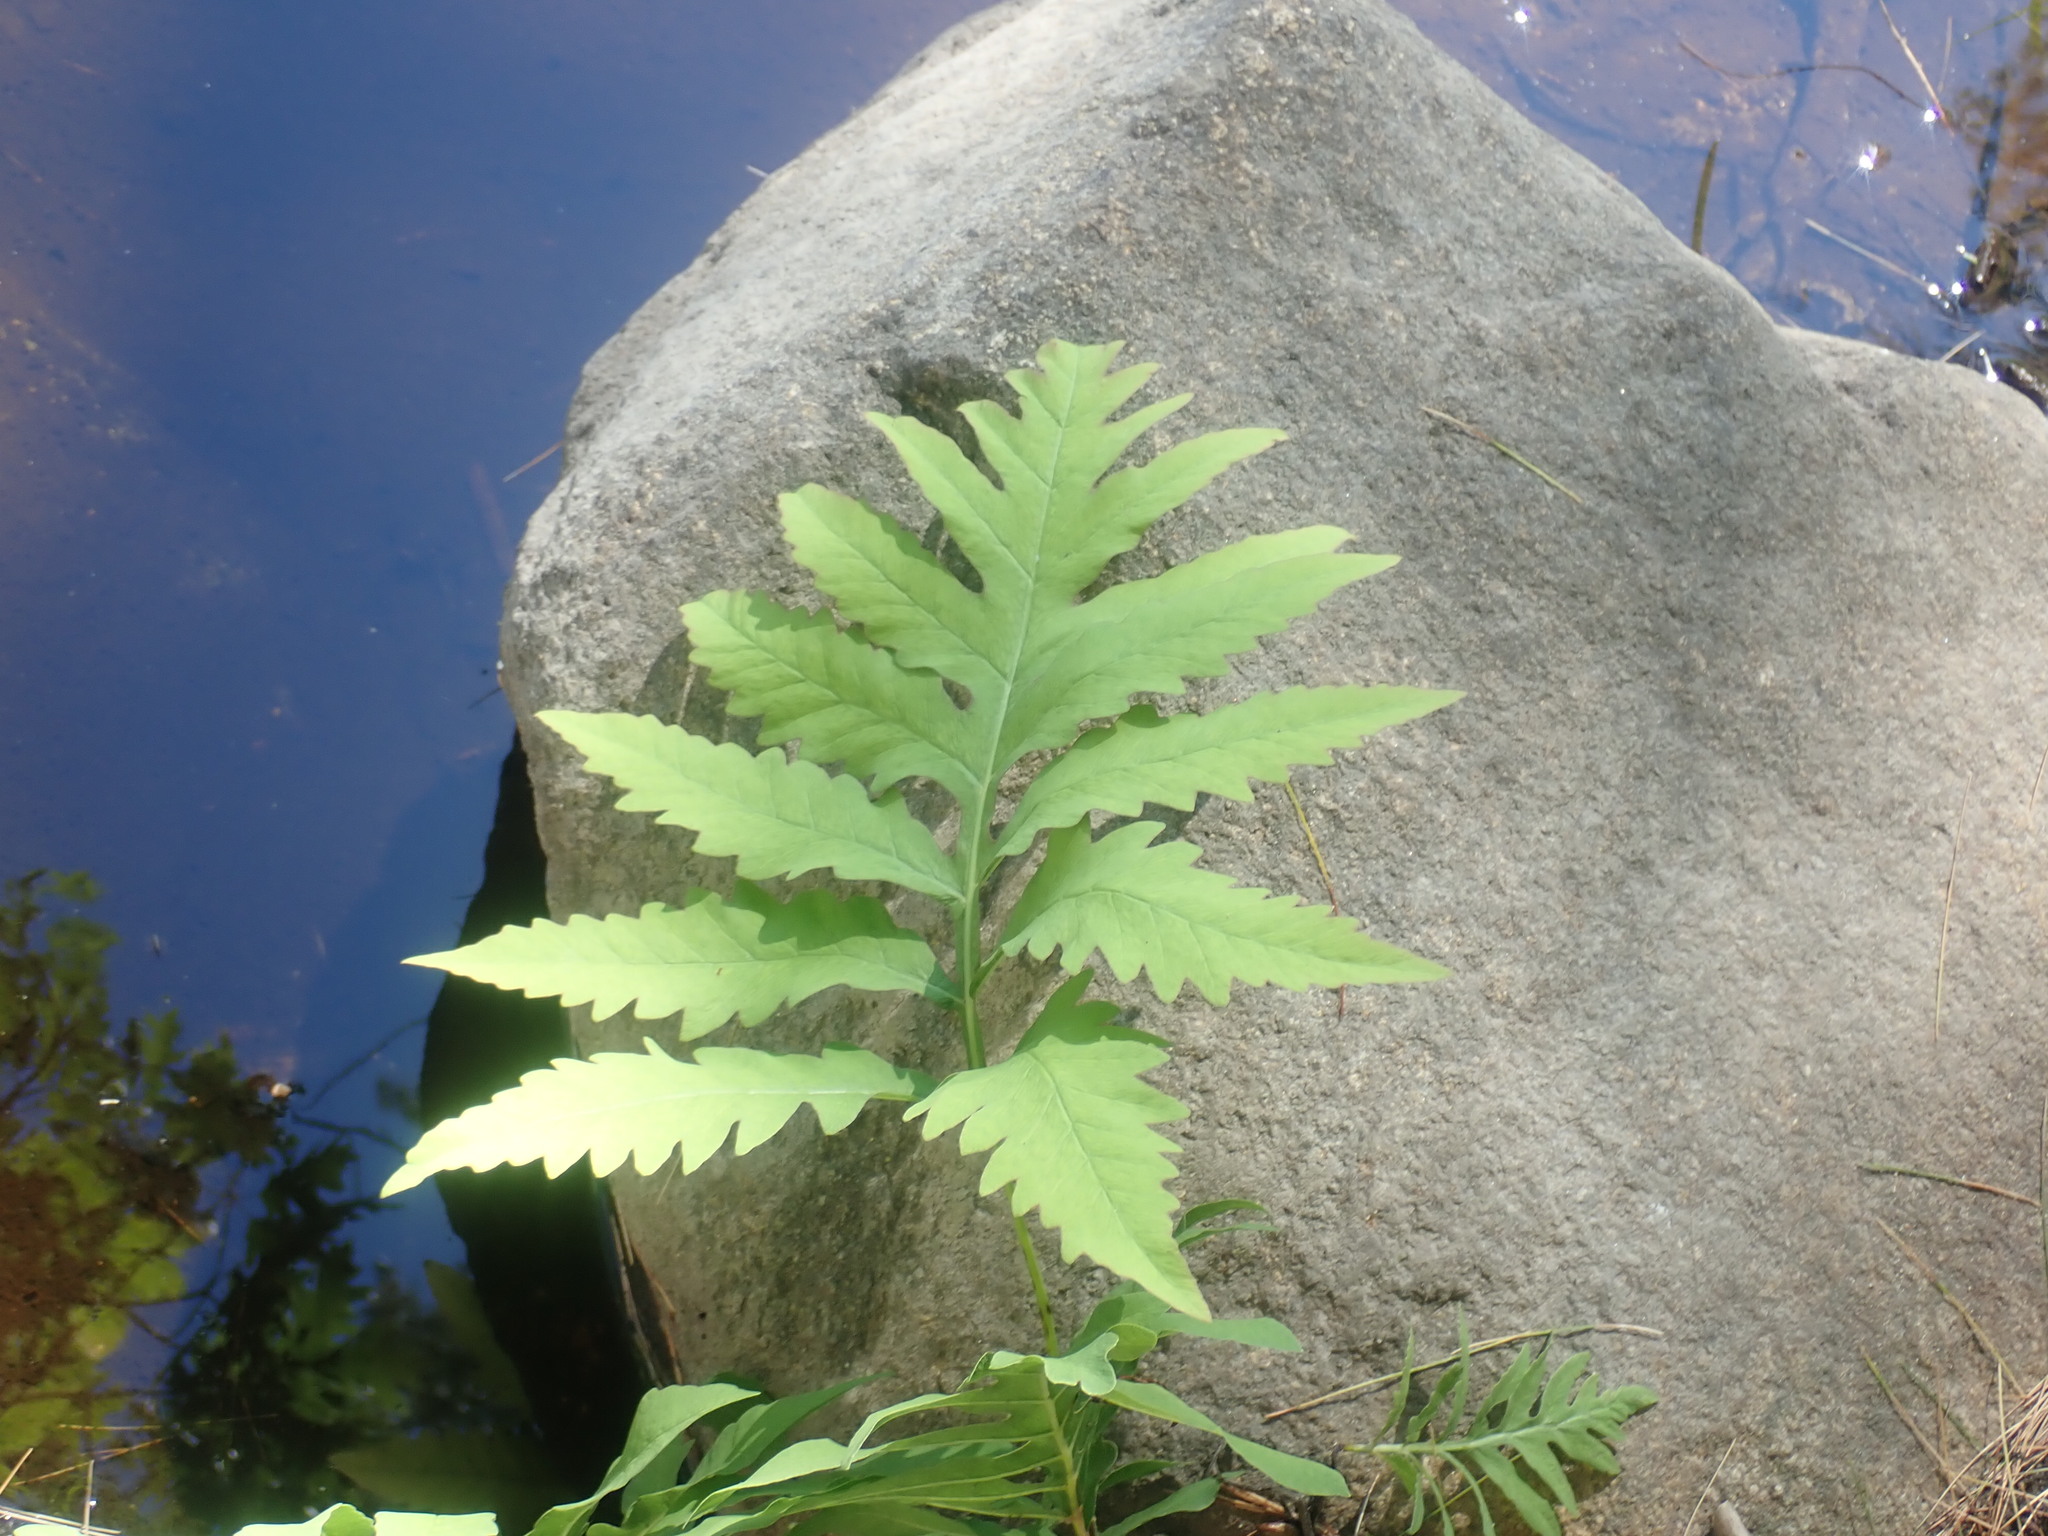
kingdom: Plantae
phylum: Tracheophyta
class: Polypodiopsida
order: Polypodiales
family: Onocleaceae
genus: Onoclea
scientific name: Onoclea sensibilis
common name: Sensitive fern
